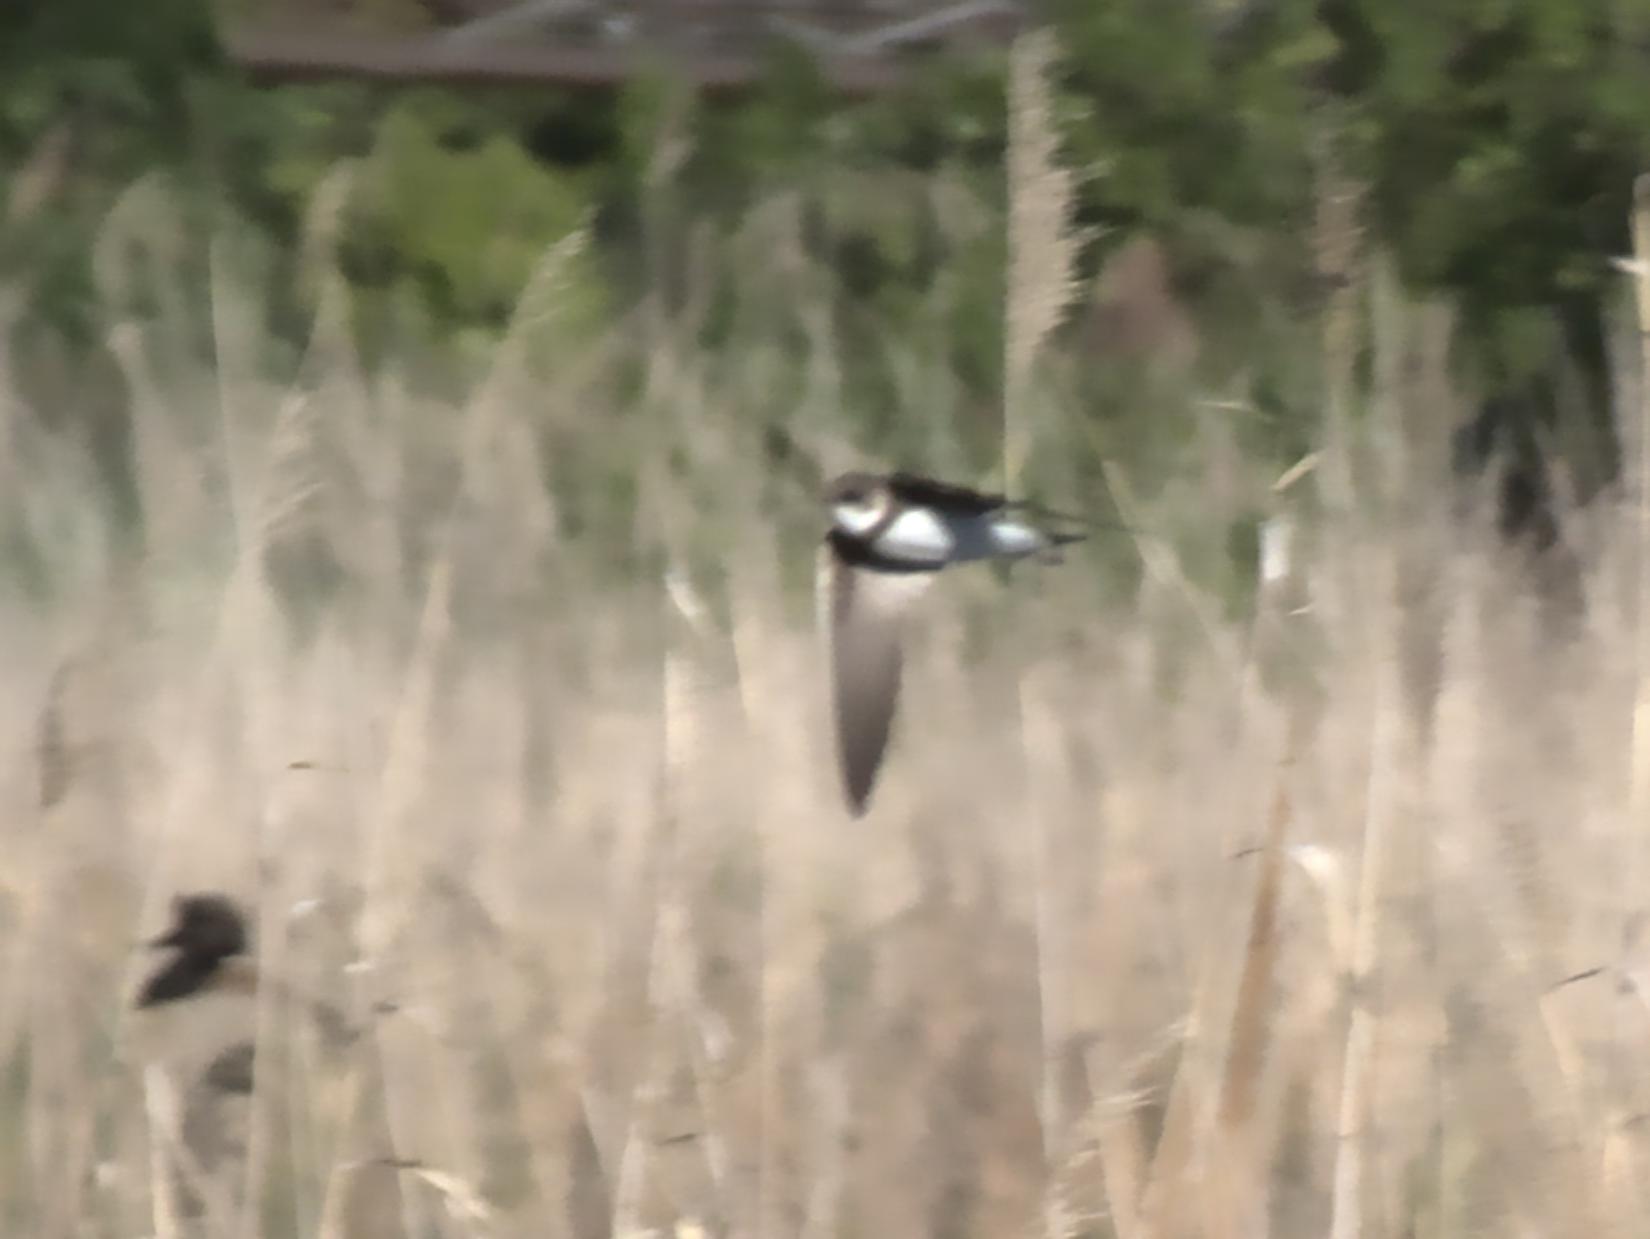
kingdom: Animalia
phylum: Chordata
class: Aves
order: Passeriformes
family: Hirundinidae
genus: Riparia
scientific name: Riparia riparia
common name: Sand martin
